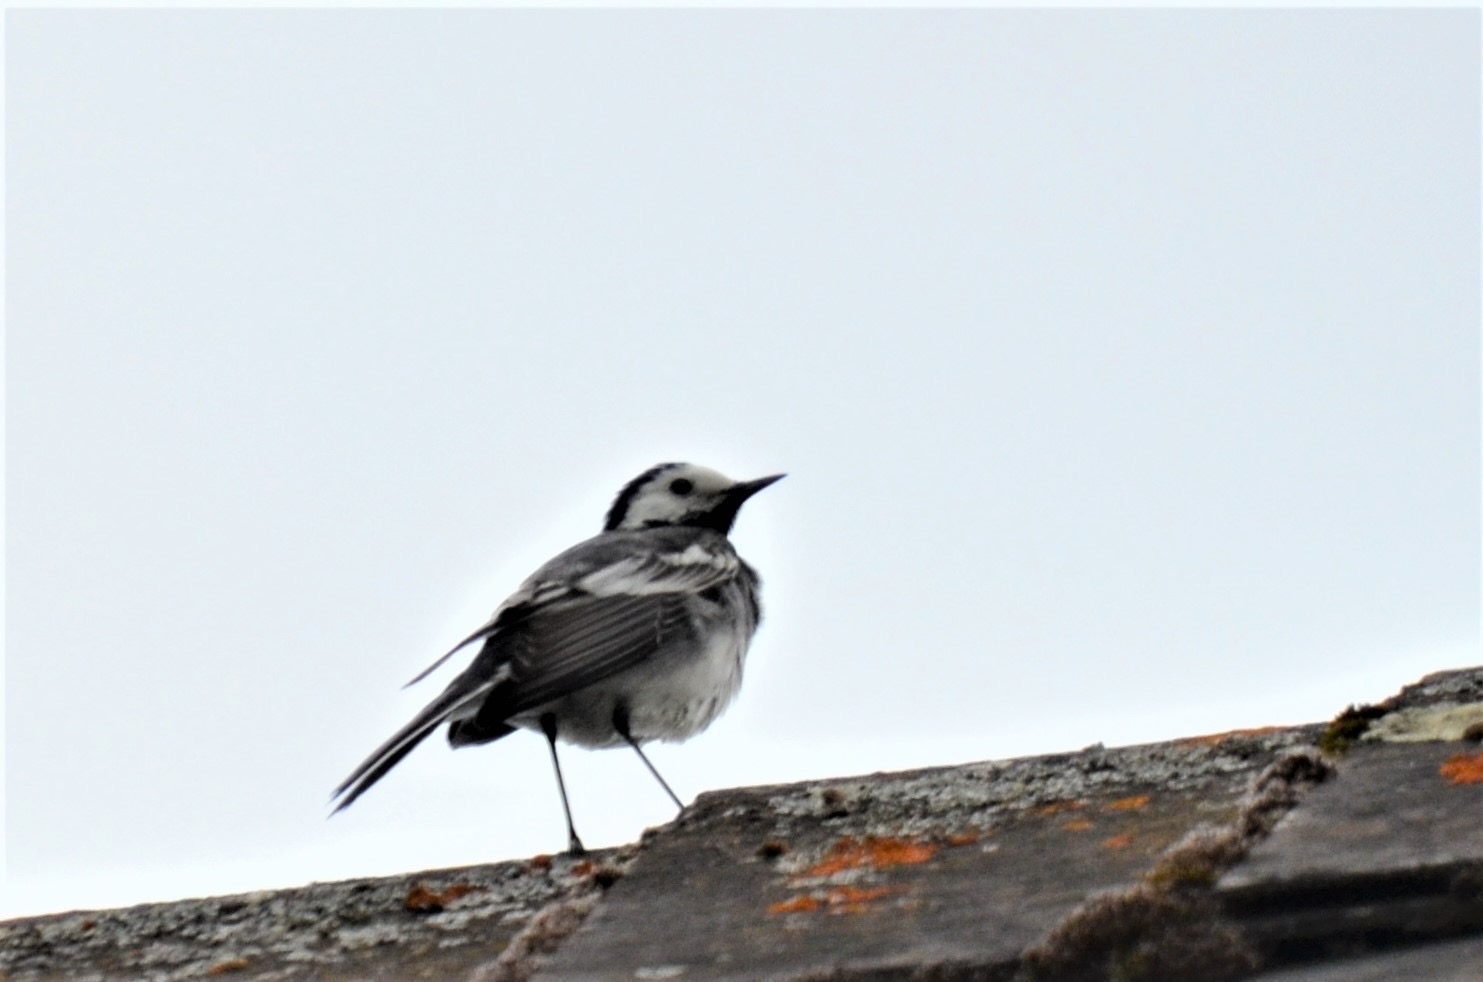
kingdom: Animalia
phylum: Chordata
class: Aves
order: Passeriformes
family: Motacillidae
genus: Motacilla
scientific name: Motacilla alba
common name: White wagtail
